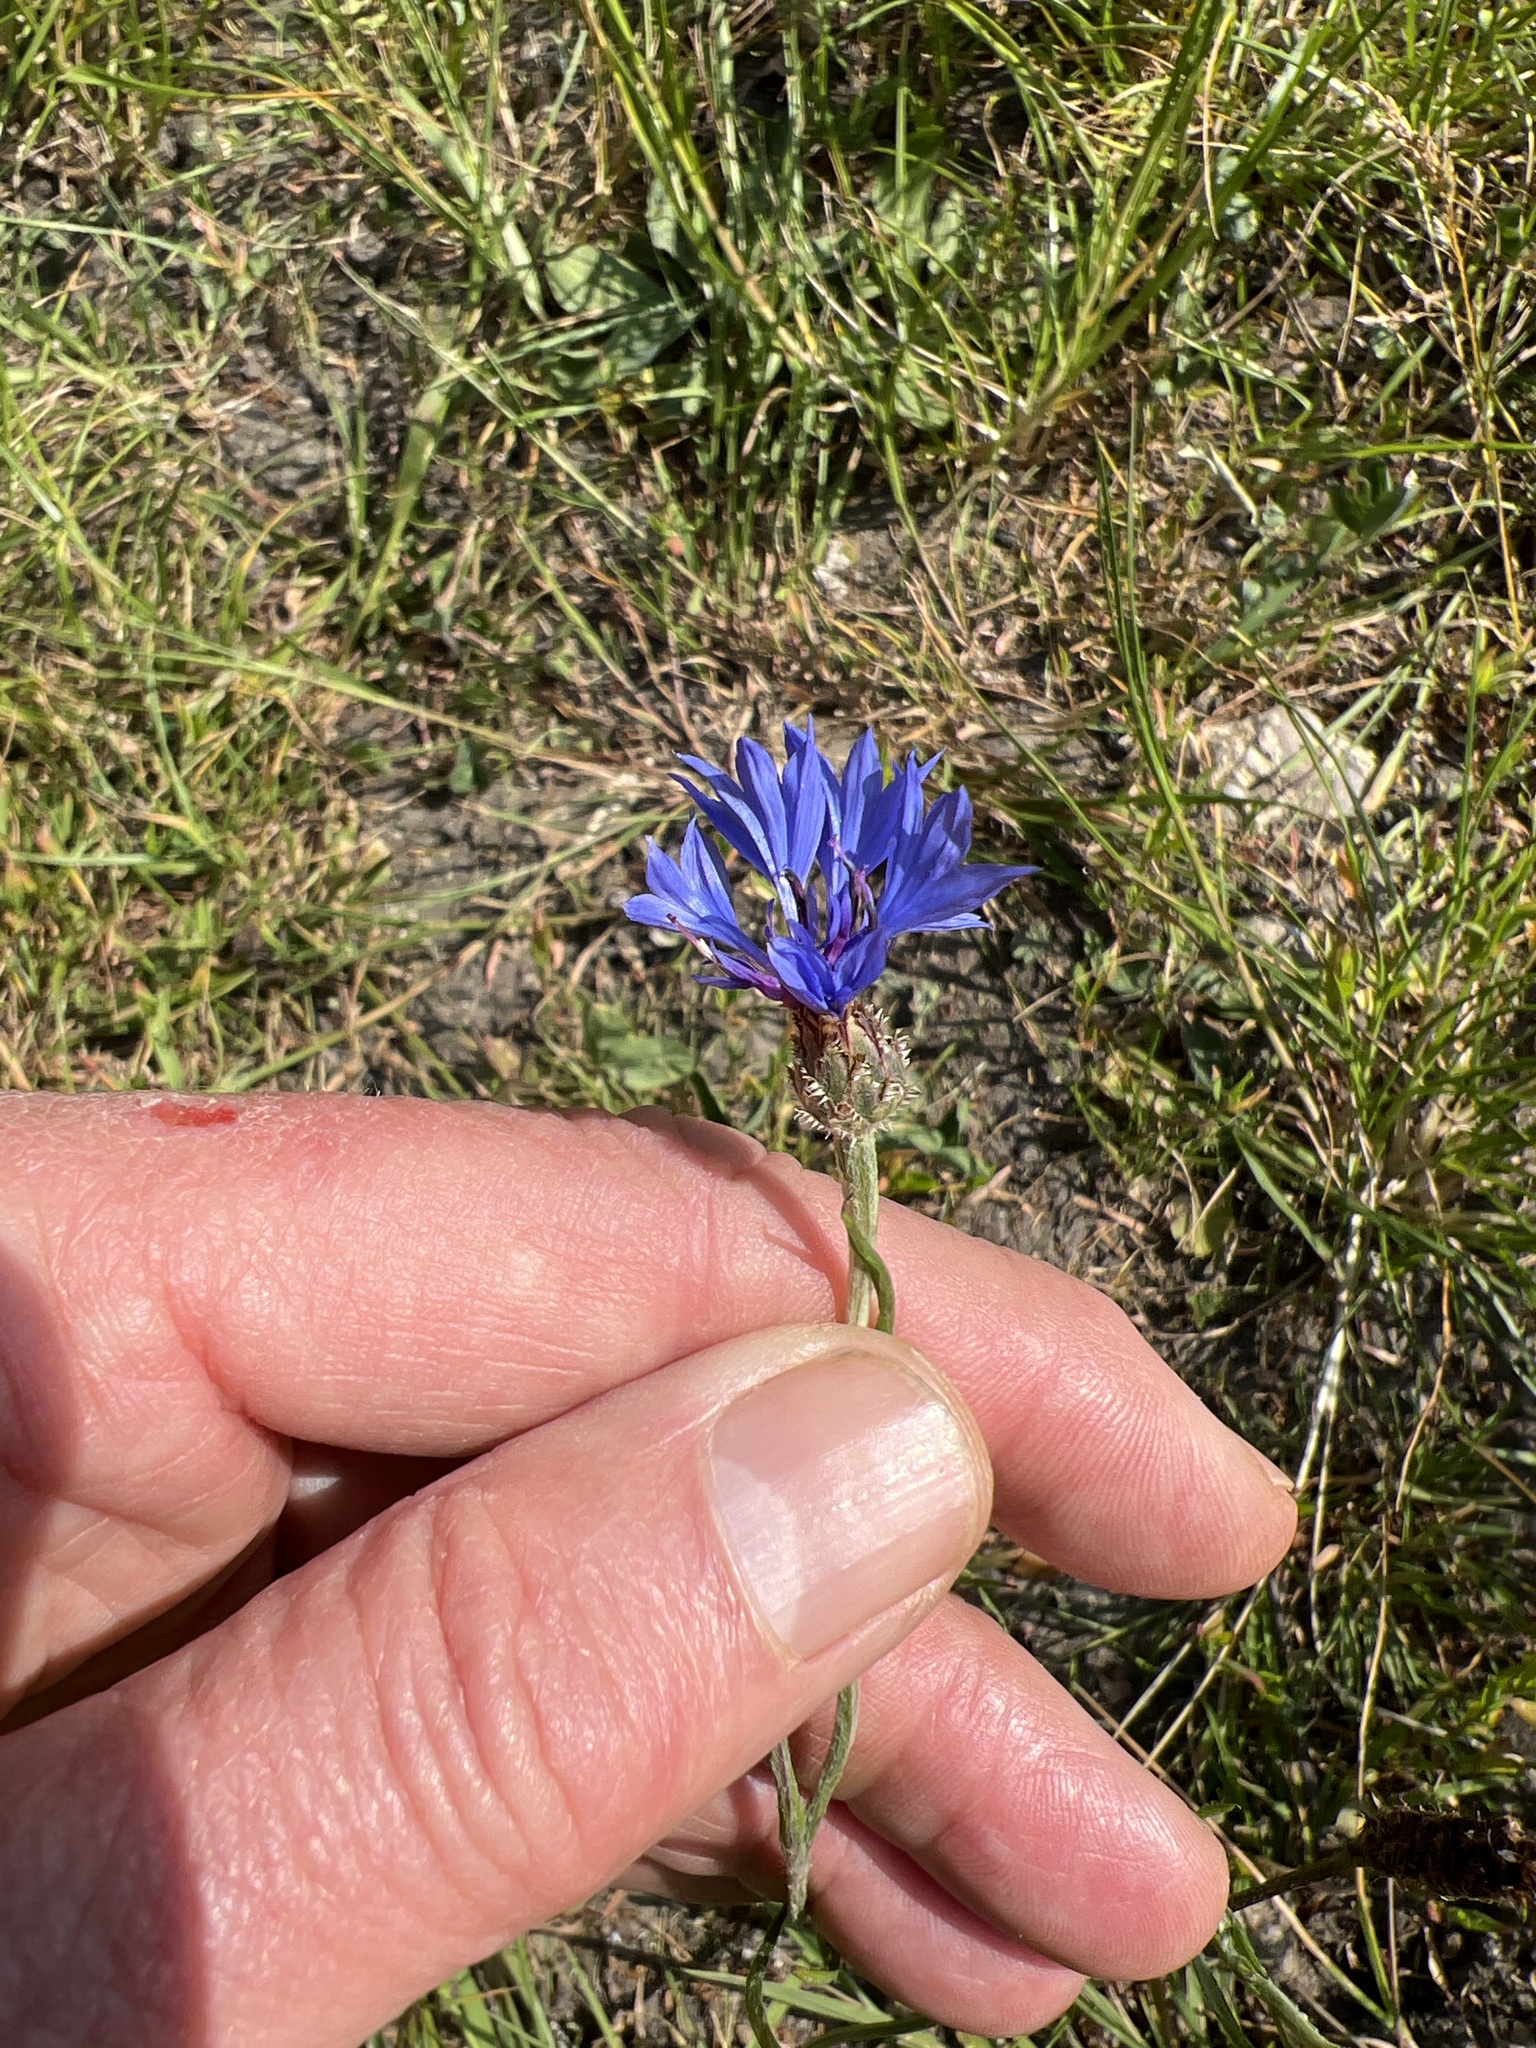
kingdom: Plantae
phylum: Tracheophyta
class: Magnoliopsida
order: Asterales
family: Asteraceae
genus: Centaurea
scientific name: Centaurea cyanus
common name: Cornflower
